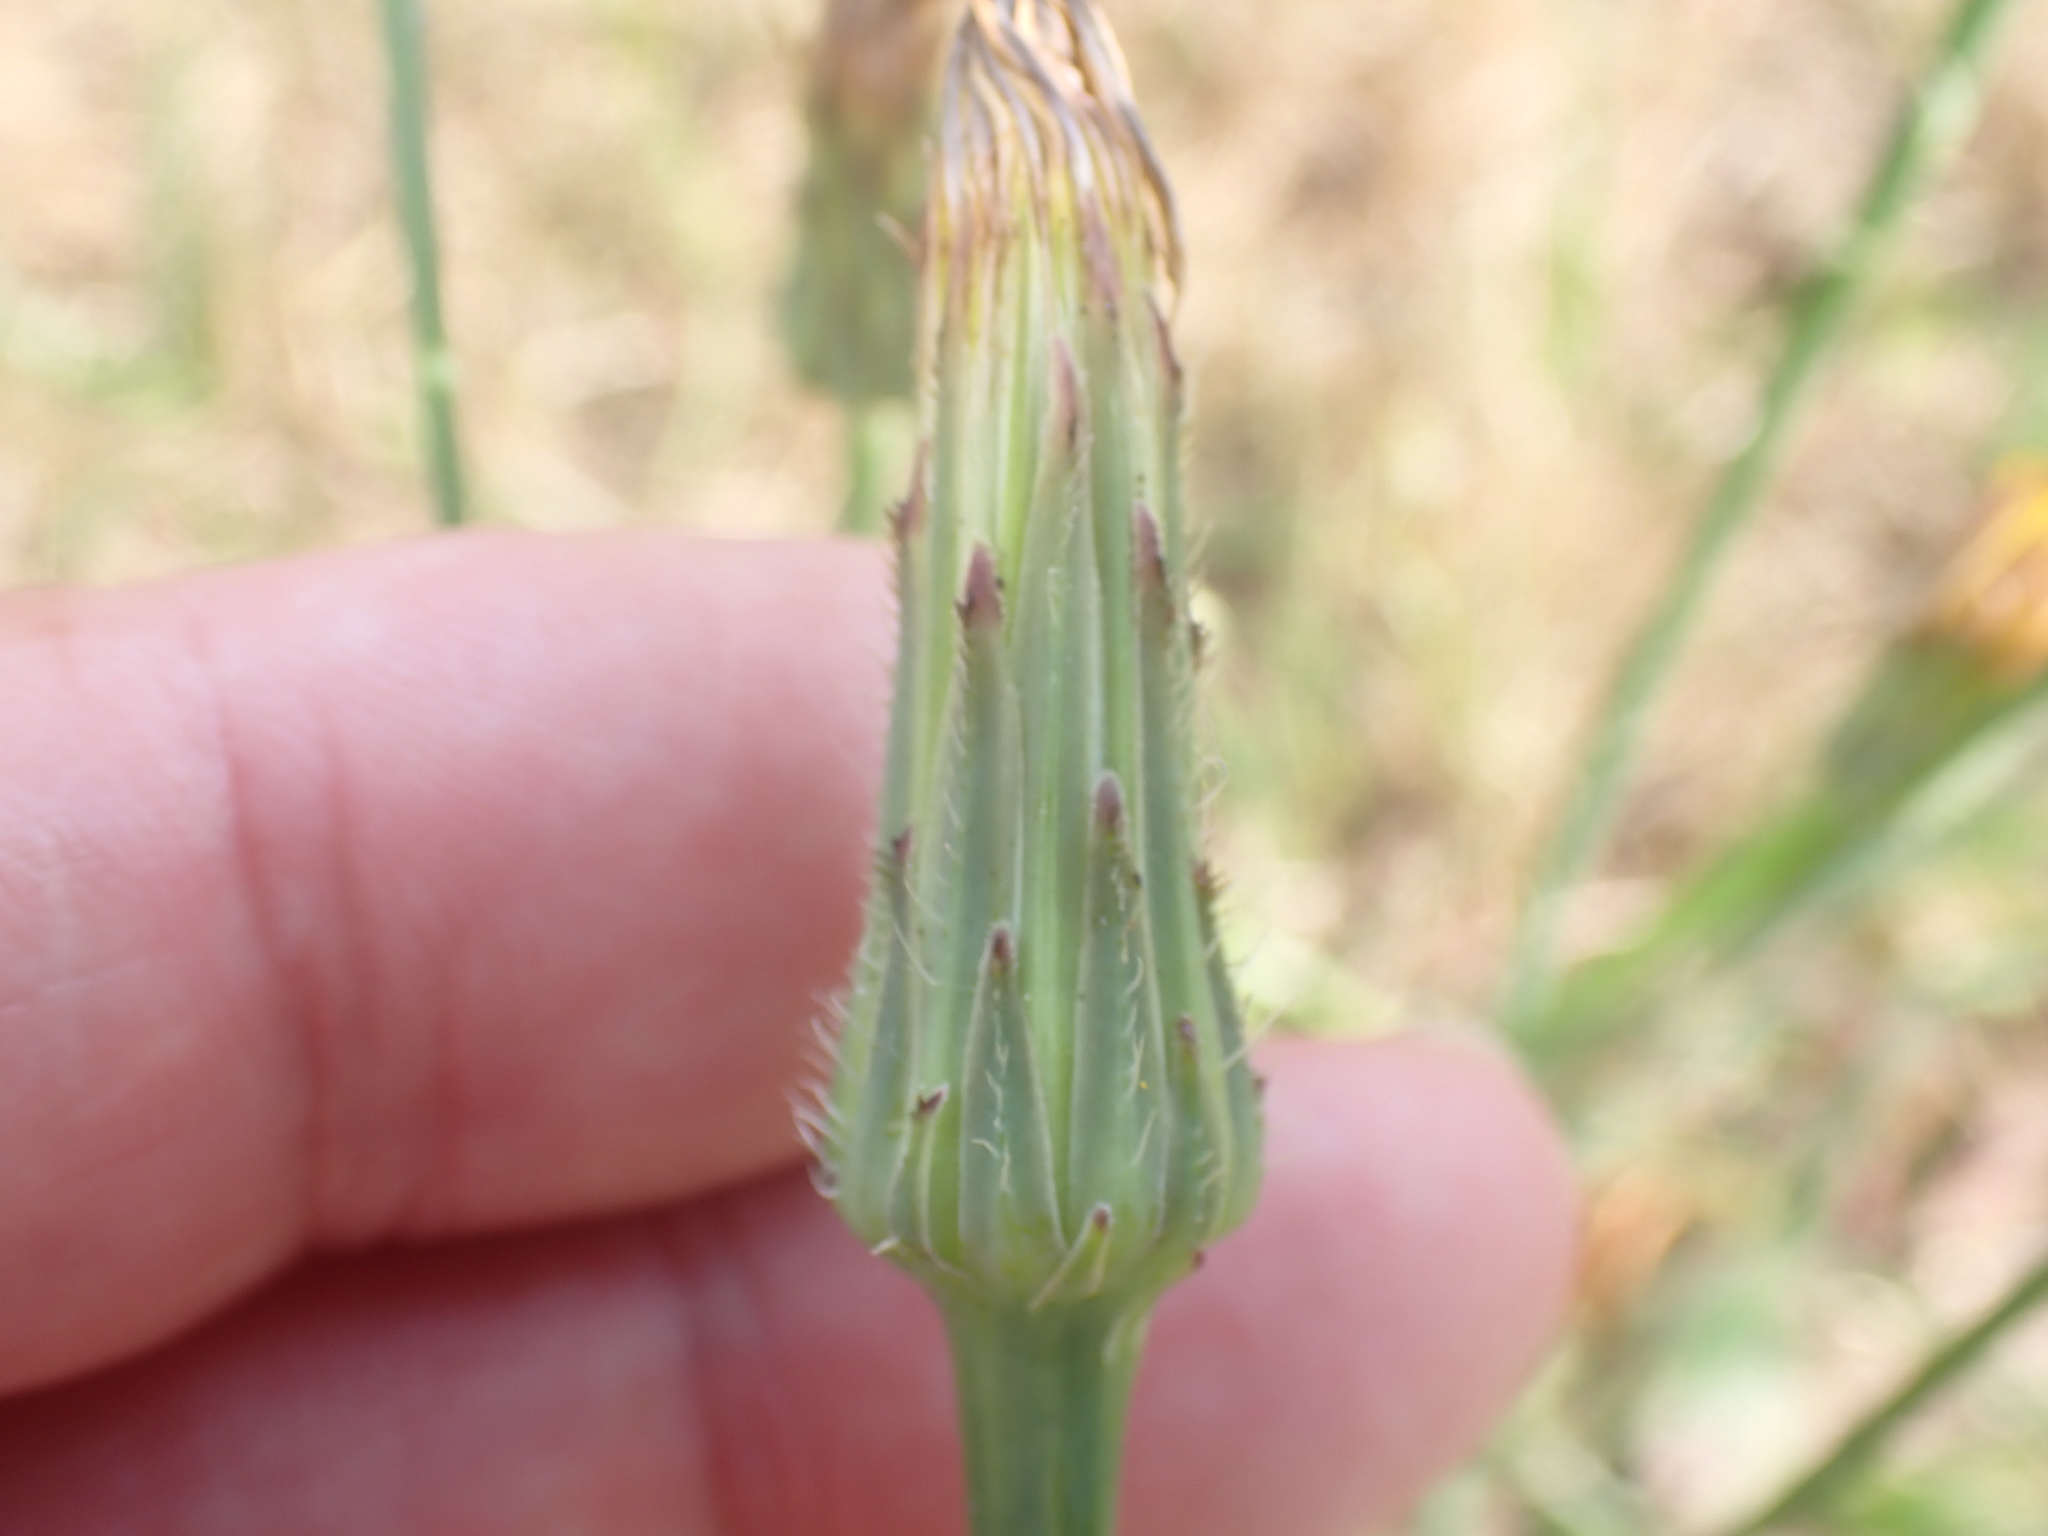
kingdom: Plantae
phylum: Tracheophyta
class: Magnoliopsida
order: Asterales
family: Asteraceae
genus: Hypochaeris
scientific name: Hypochaeris radicata
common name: Flatweed
